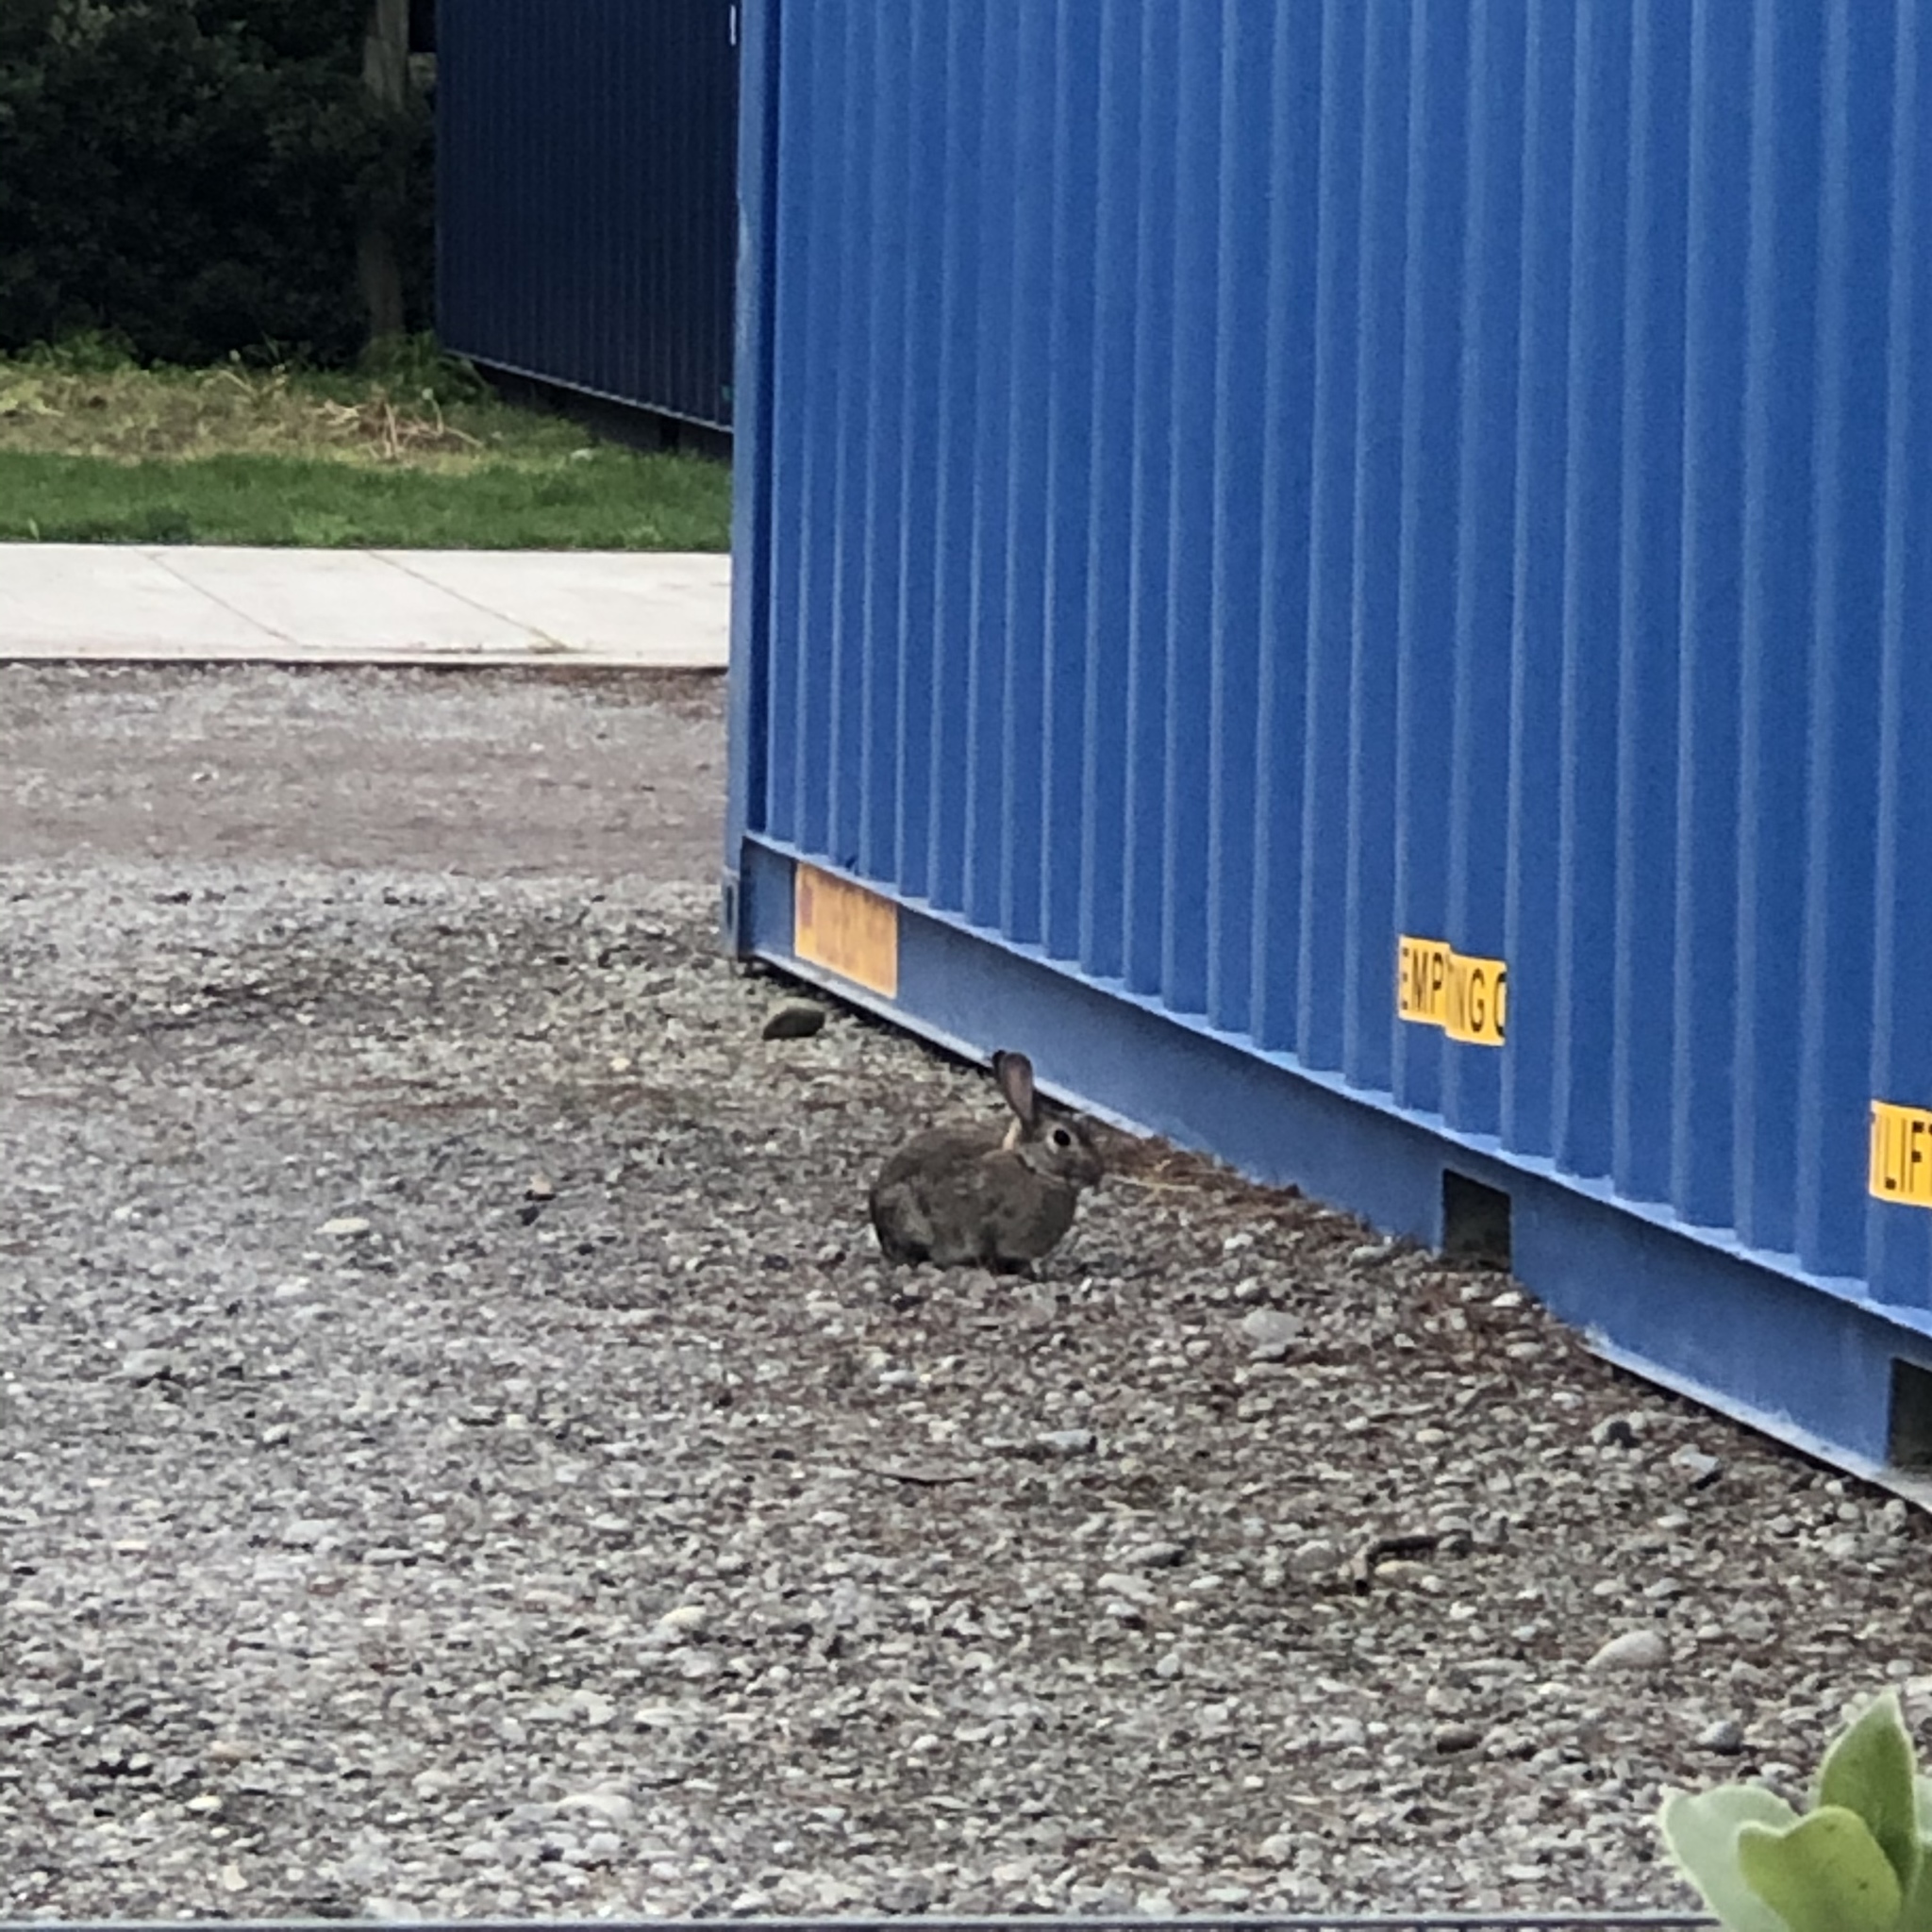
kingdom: Animalia
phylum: Chordata
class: Mammalia
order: Lagomorpha
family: Leporidae
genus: Oryctolagus
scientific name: Oryctolagus cuniculus
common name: European rabbit
